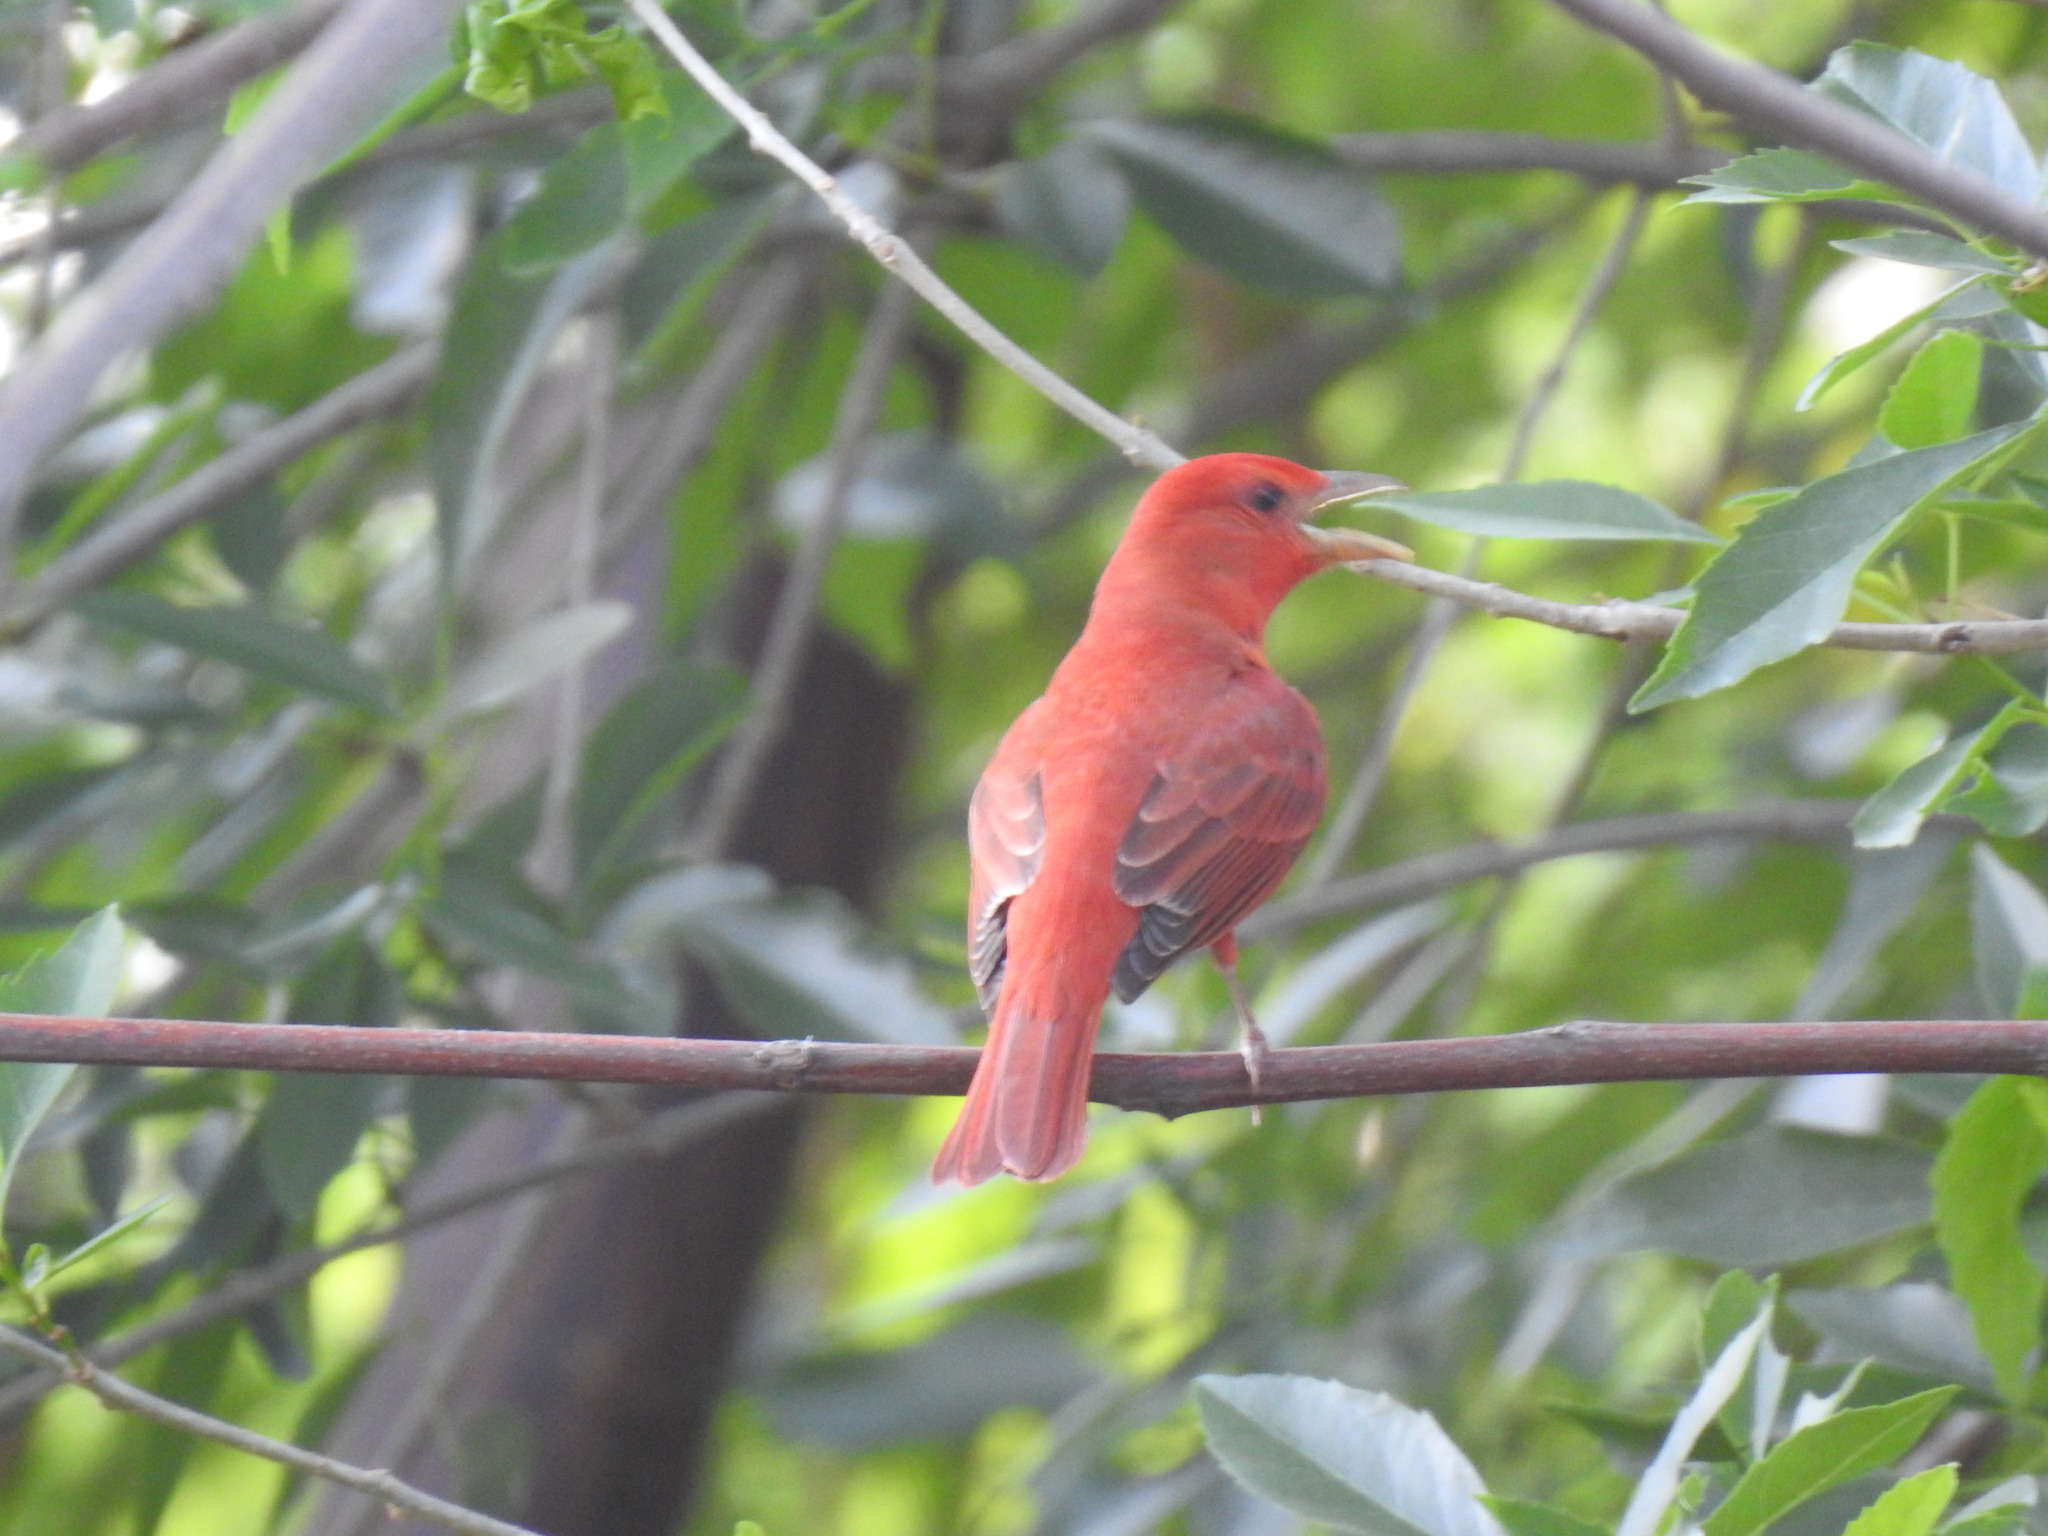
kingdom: Animalia
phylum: Chordata
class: Aves
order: Passeriformes
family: Cardinalidae
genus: Piranga
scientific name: Piranga rubra
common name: Summer tanager
